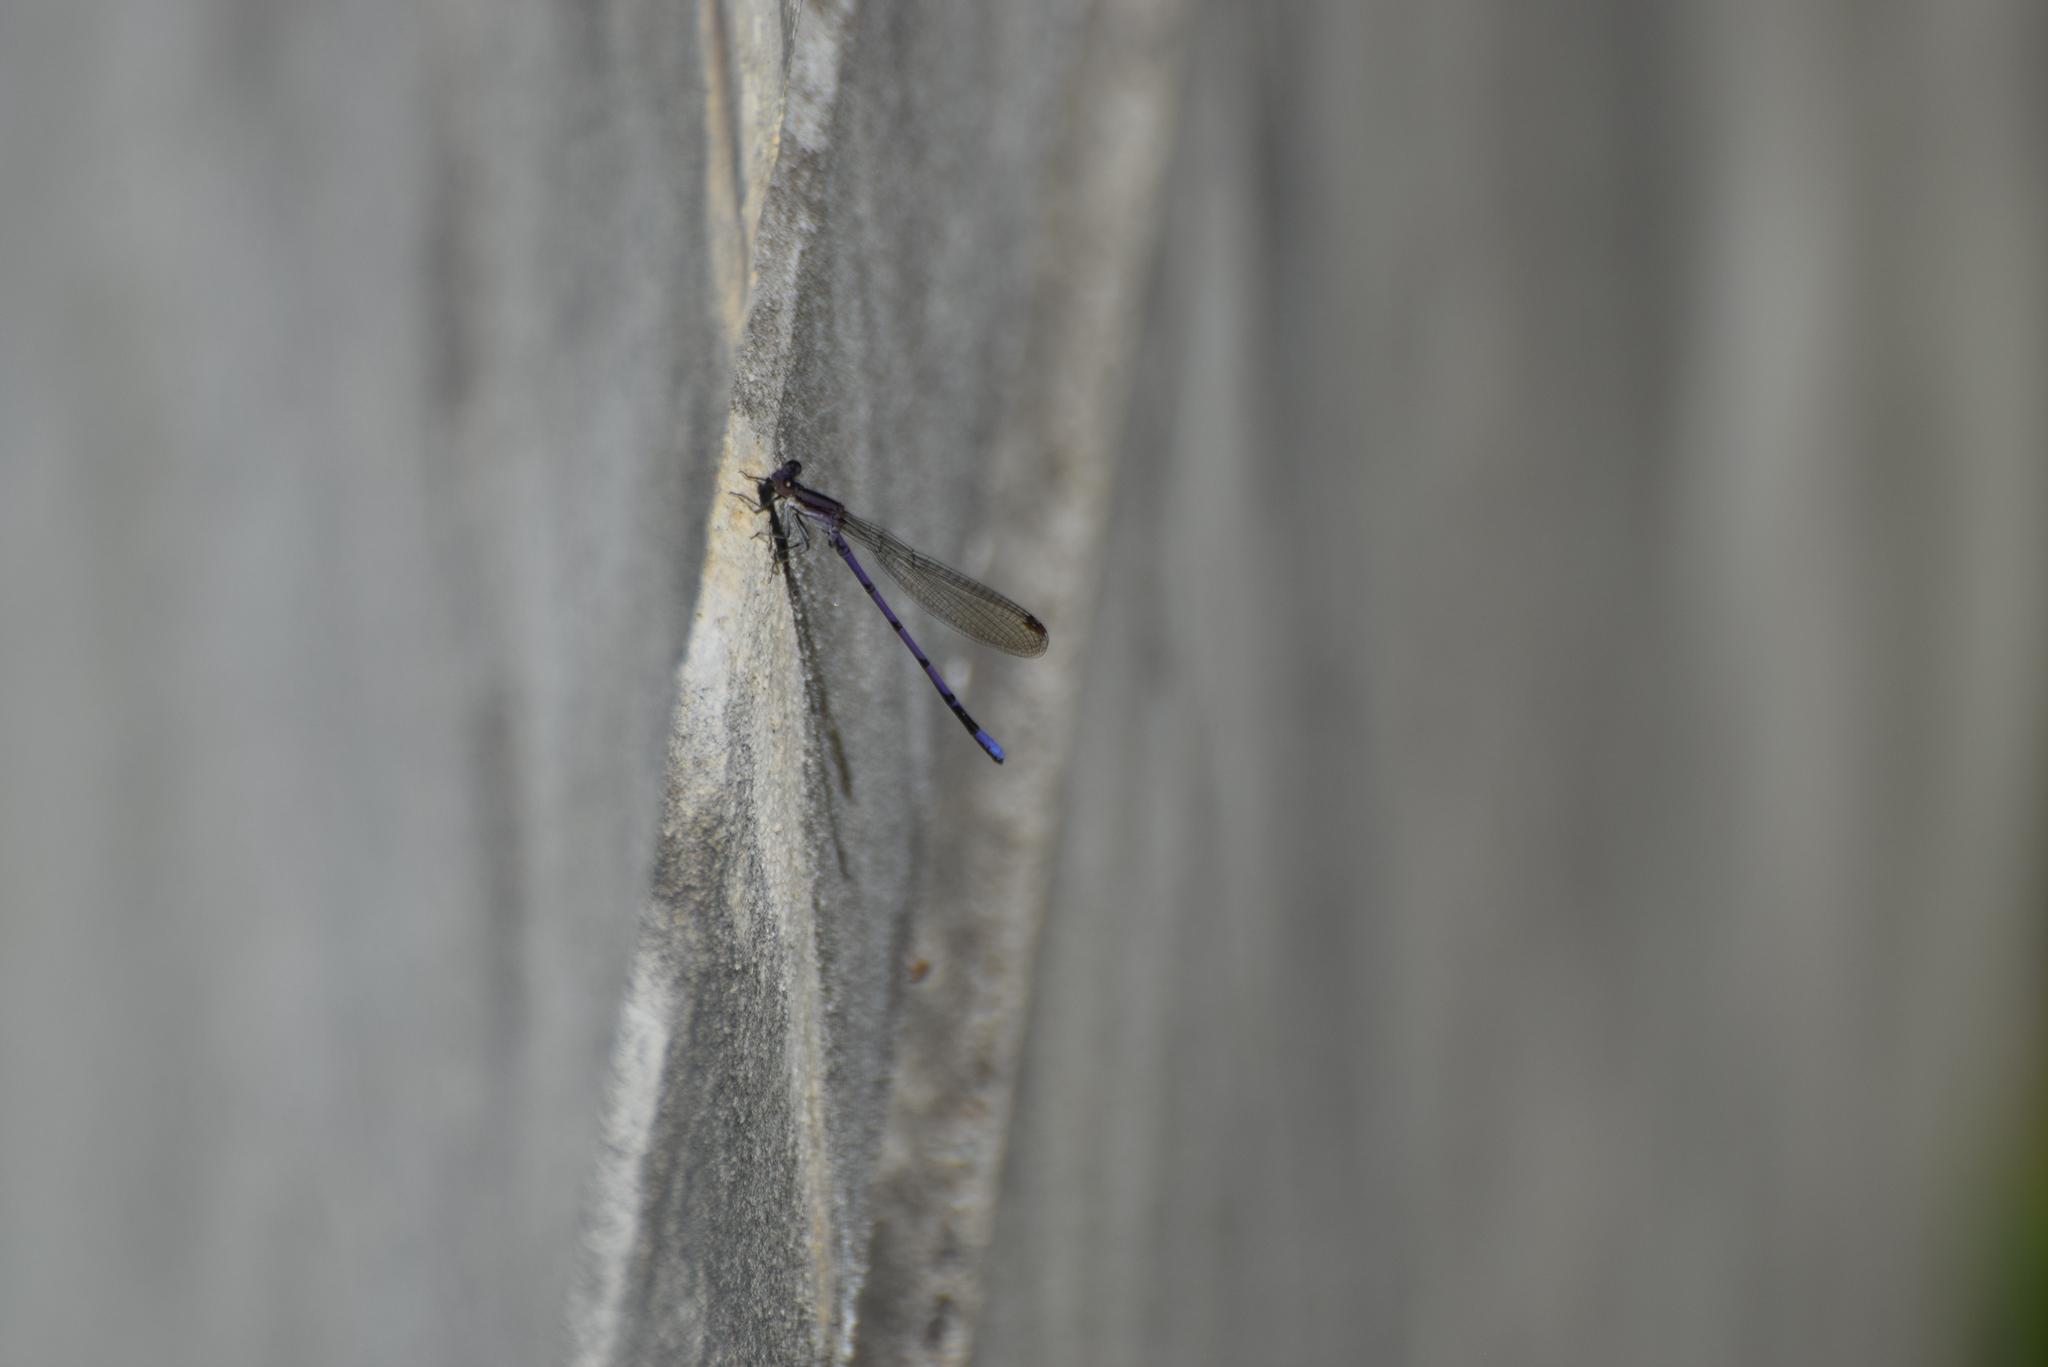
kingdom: Animalia
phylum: Arthropoda
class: Insecta
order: Odonata
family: Coenagrionidae
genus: Argia
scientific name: Argia fumipennis
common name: Variable dancer
